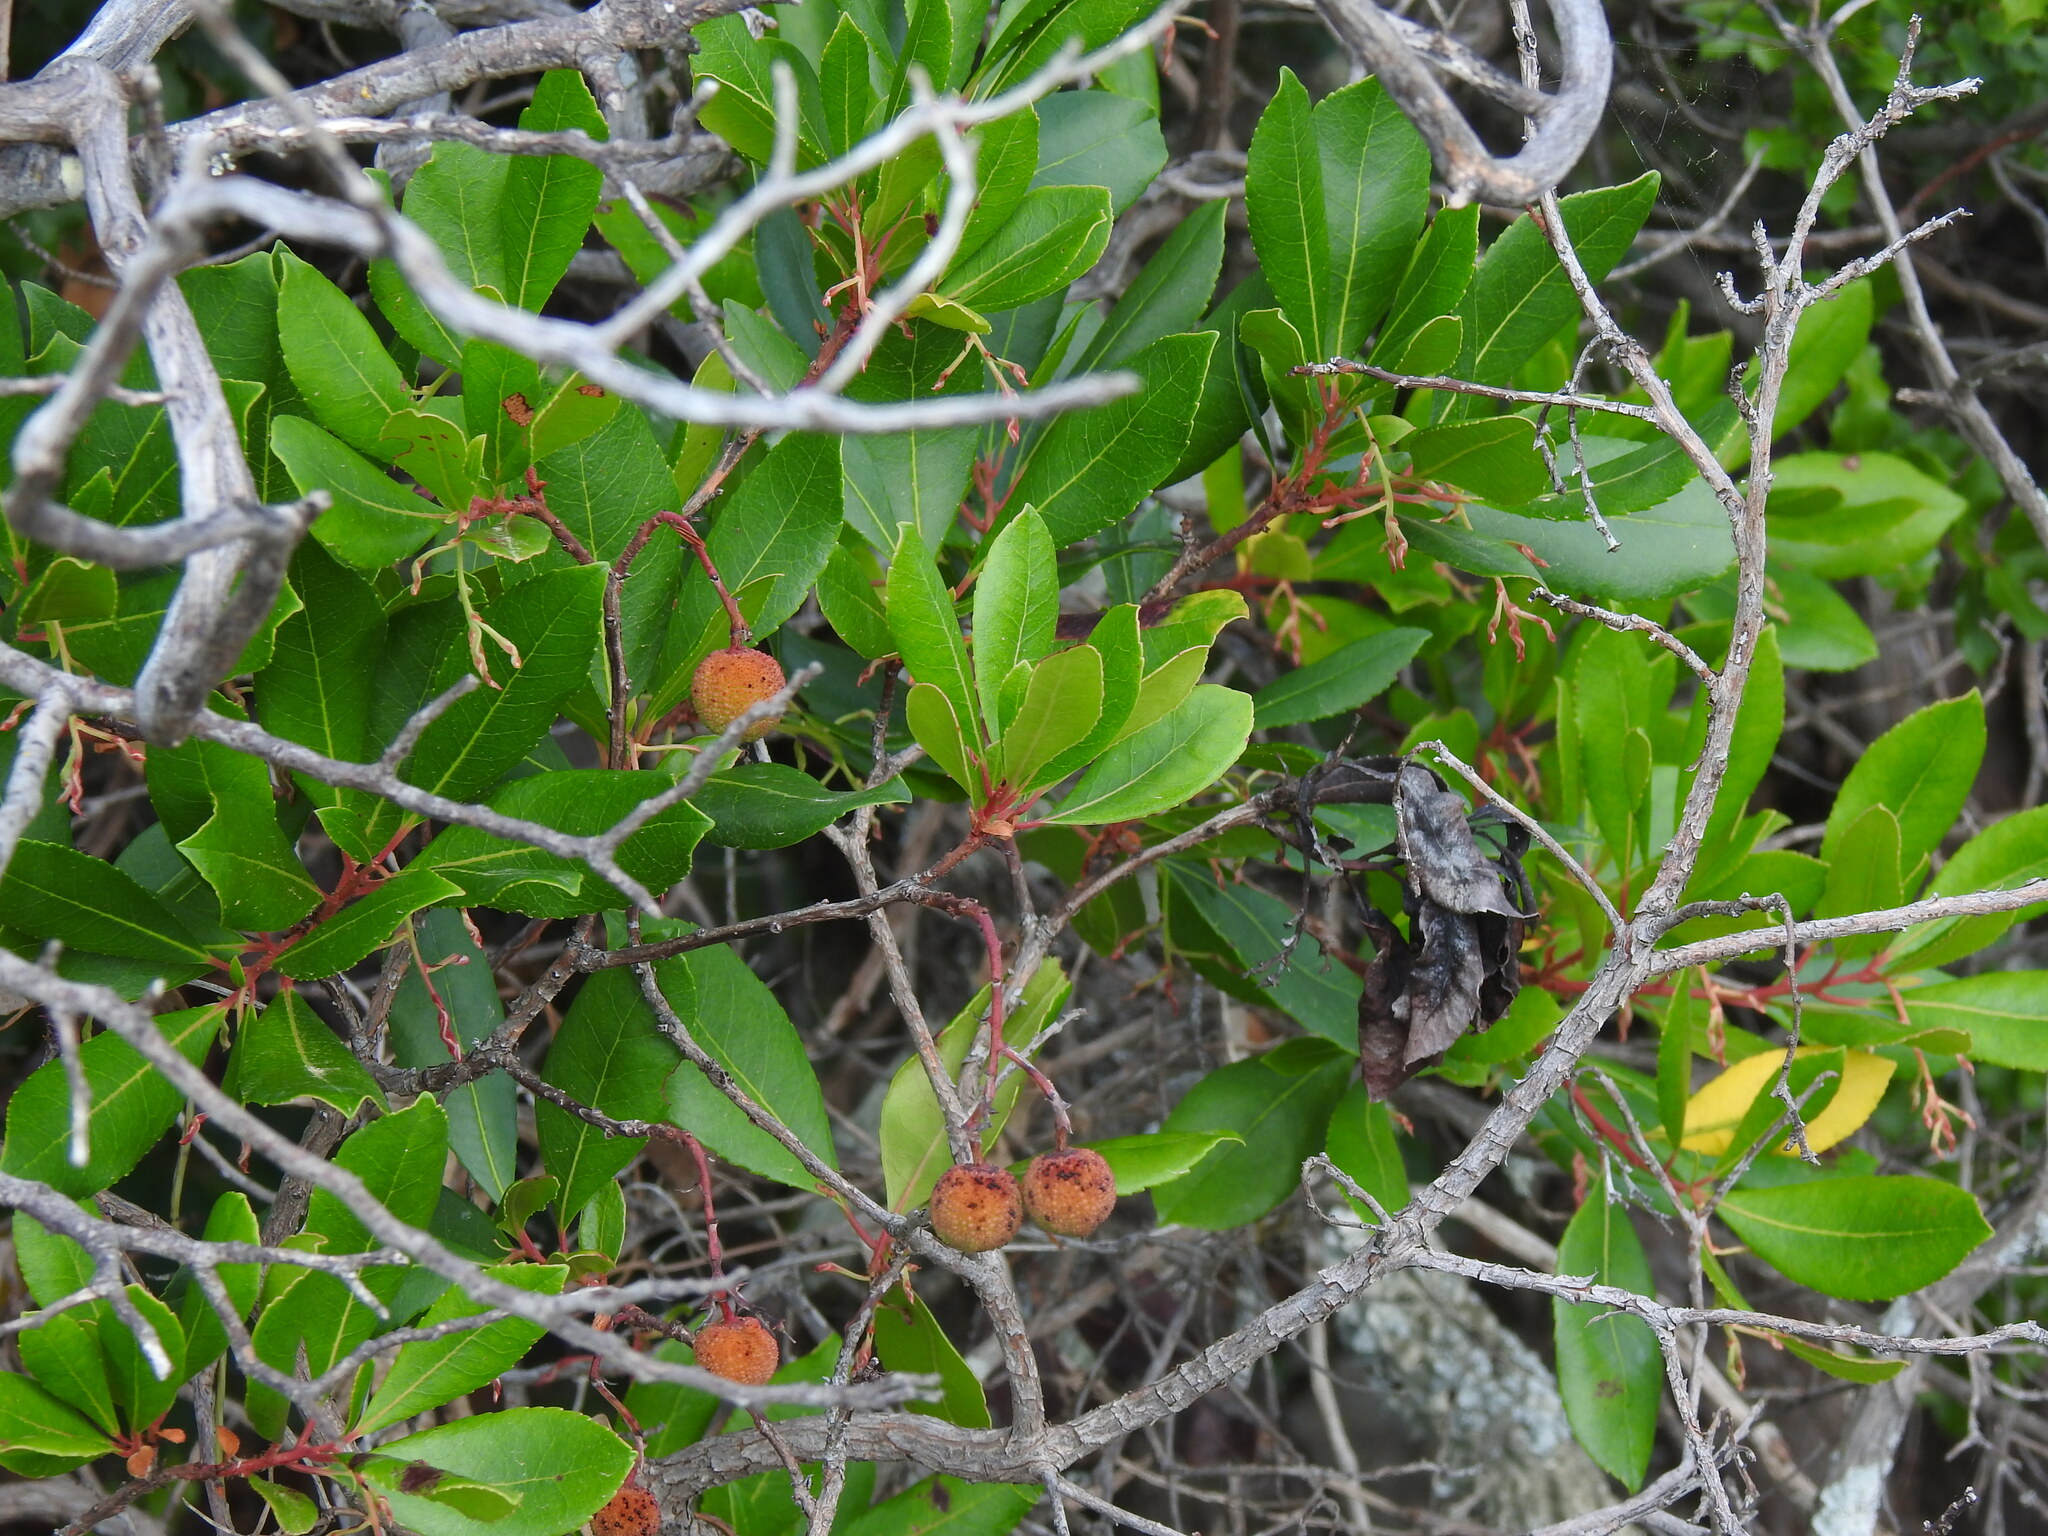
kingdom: Plantae
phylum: Tracheophyta
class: Magnoliopsida
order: Ericales
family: Ericaceae
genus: Arbutus
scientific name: Arbutus unedo
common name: Strawberry-tree
